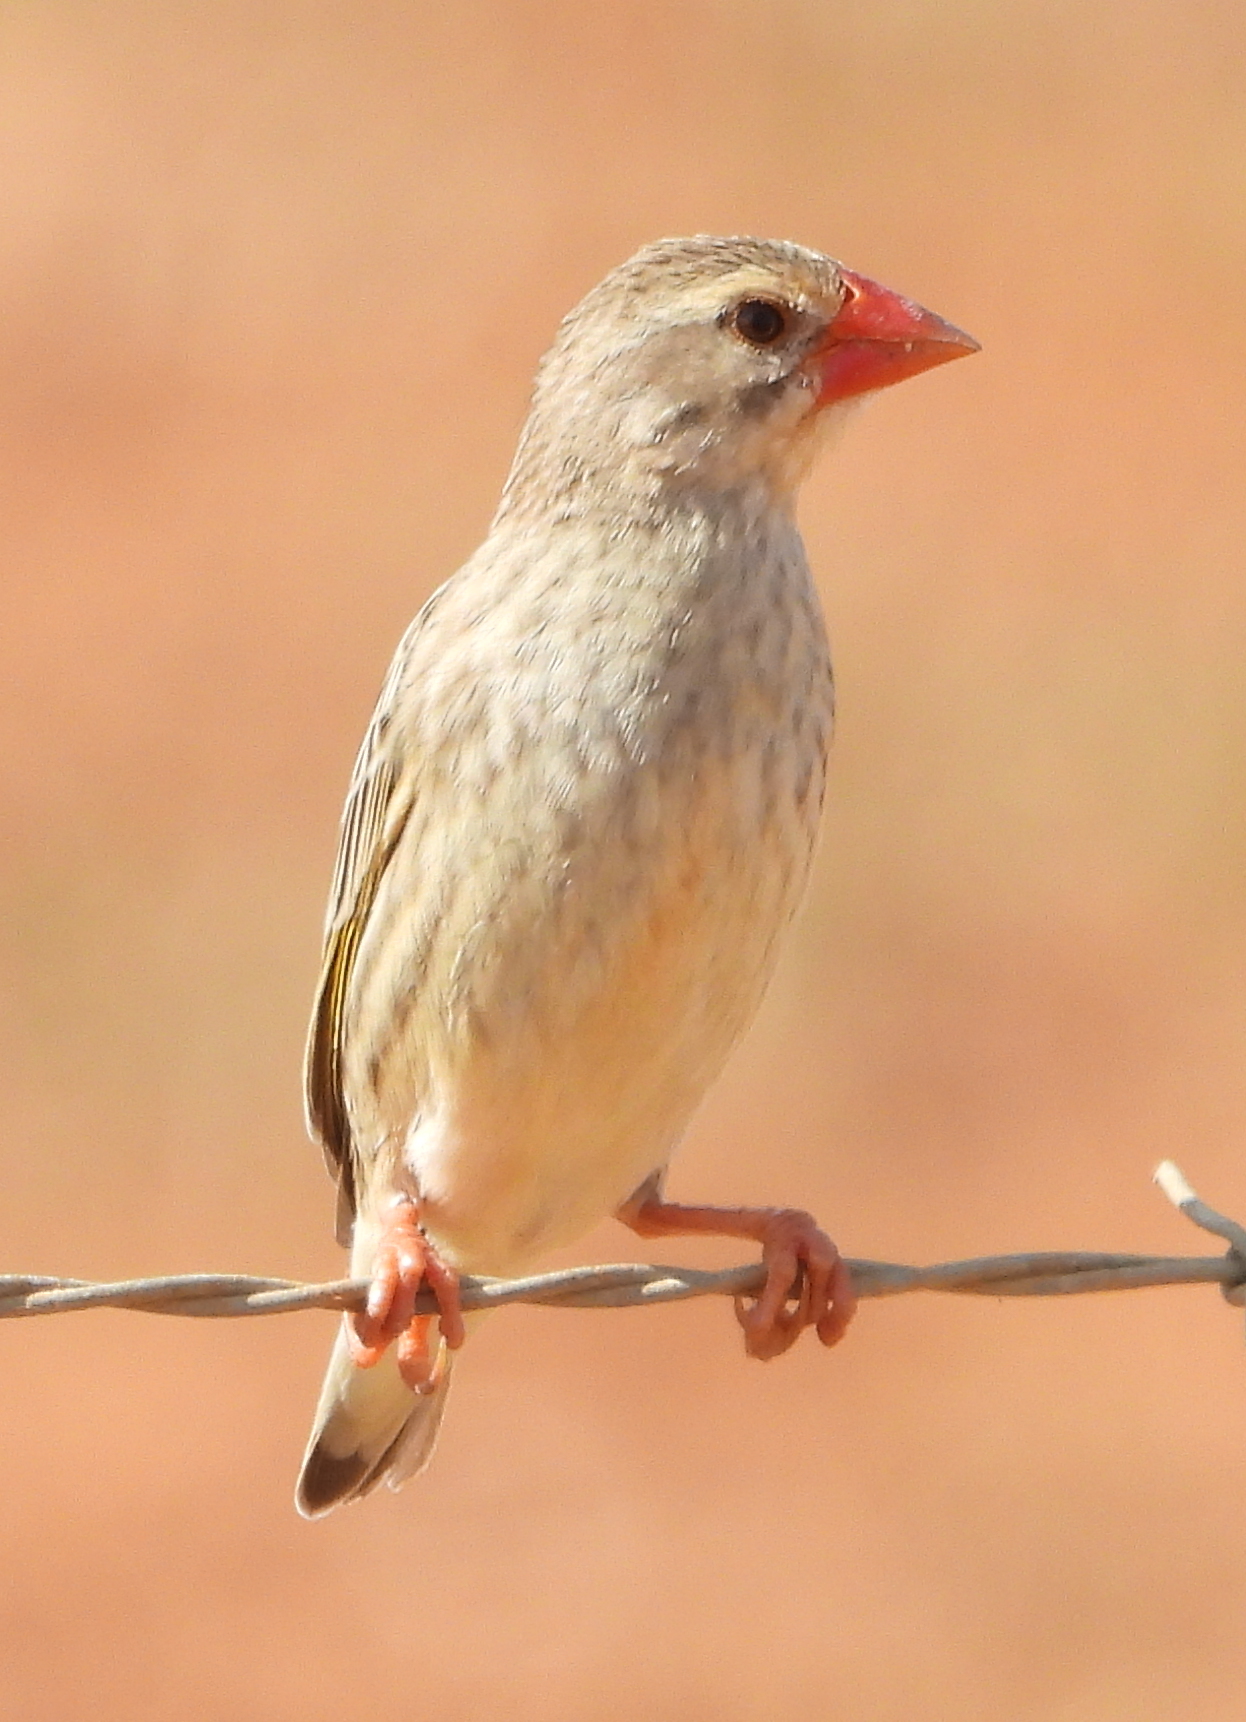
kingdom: Animalia
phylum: Chordata
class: Aves
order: Passeriformes
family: Ploceidae
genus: Quelea
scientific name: Quelea quelea
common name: Red-billed quelea
